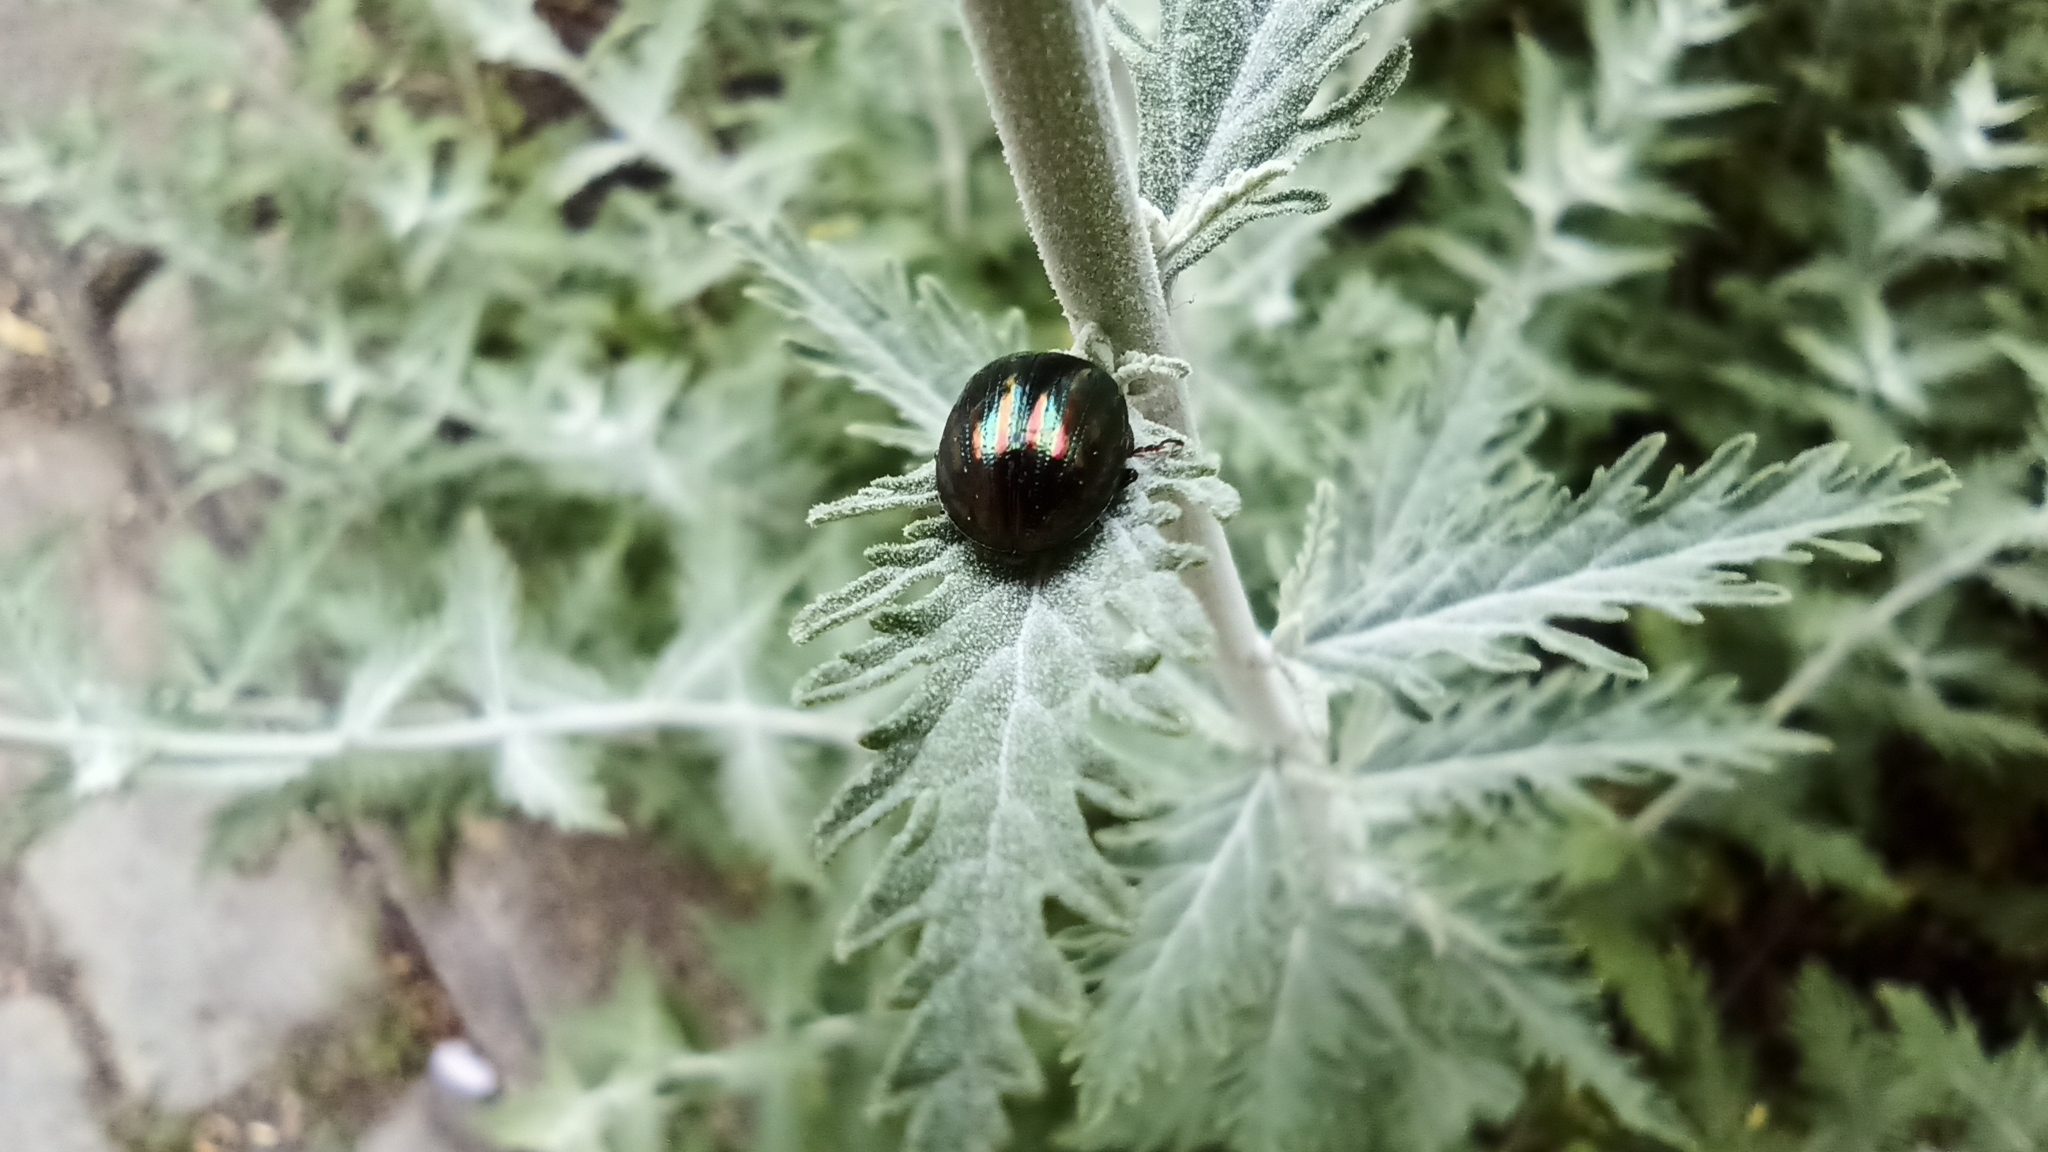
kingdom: Animalia
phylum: Arthropoda
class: Insecta
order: Coleoptera
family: Chrysomelidae
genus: Chrysolina
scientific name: Chrysolina americana
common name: Rosemary beetle
